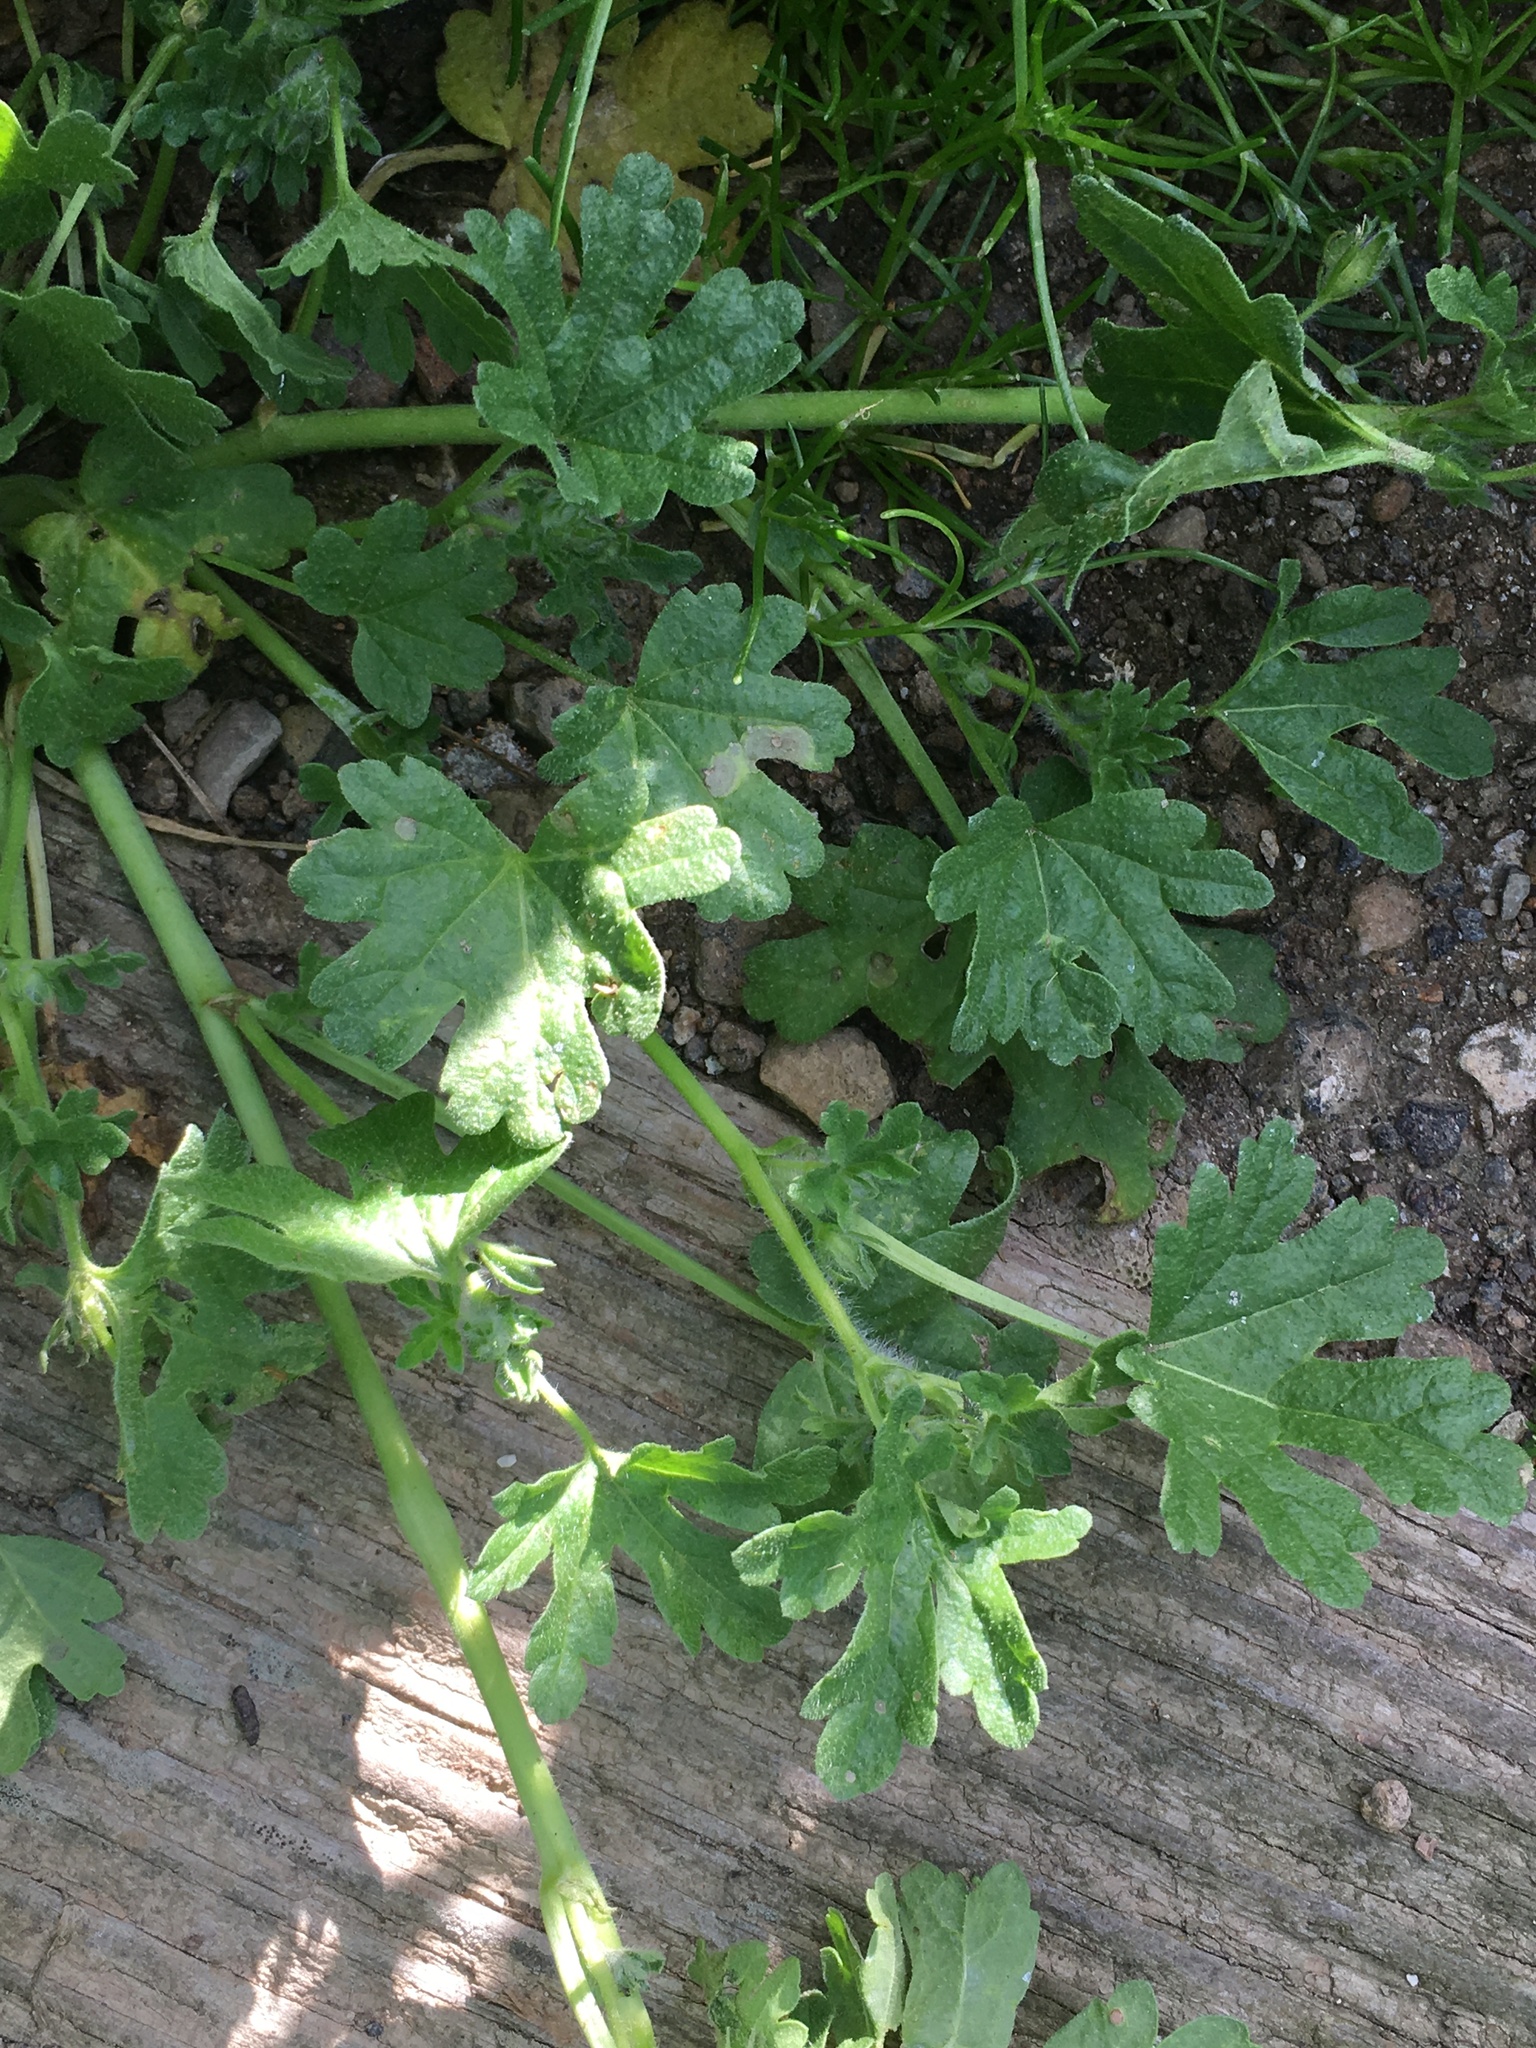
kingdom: Plantae
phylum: Tracheophyta
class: Magnoliopsida
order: Malvales
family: Malvaceae
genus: Eremalche
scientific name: Eremalche exilis
